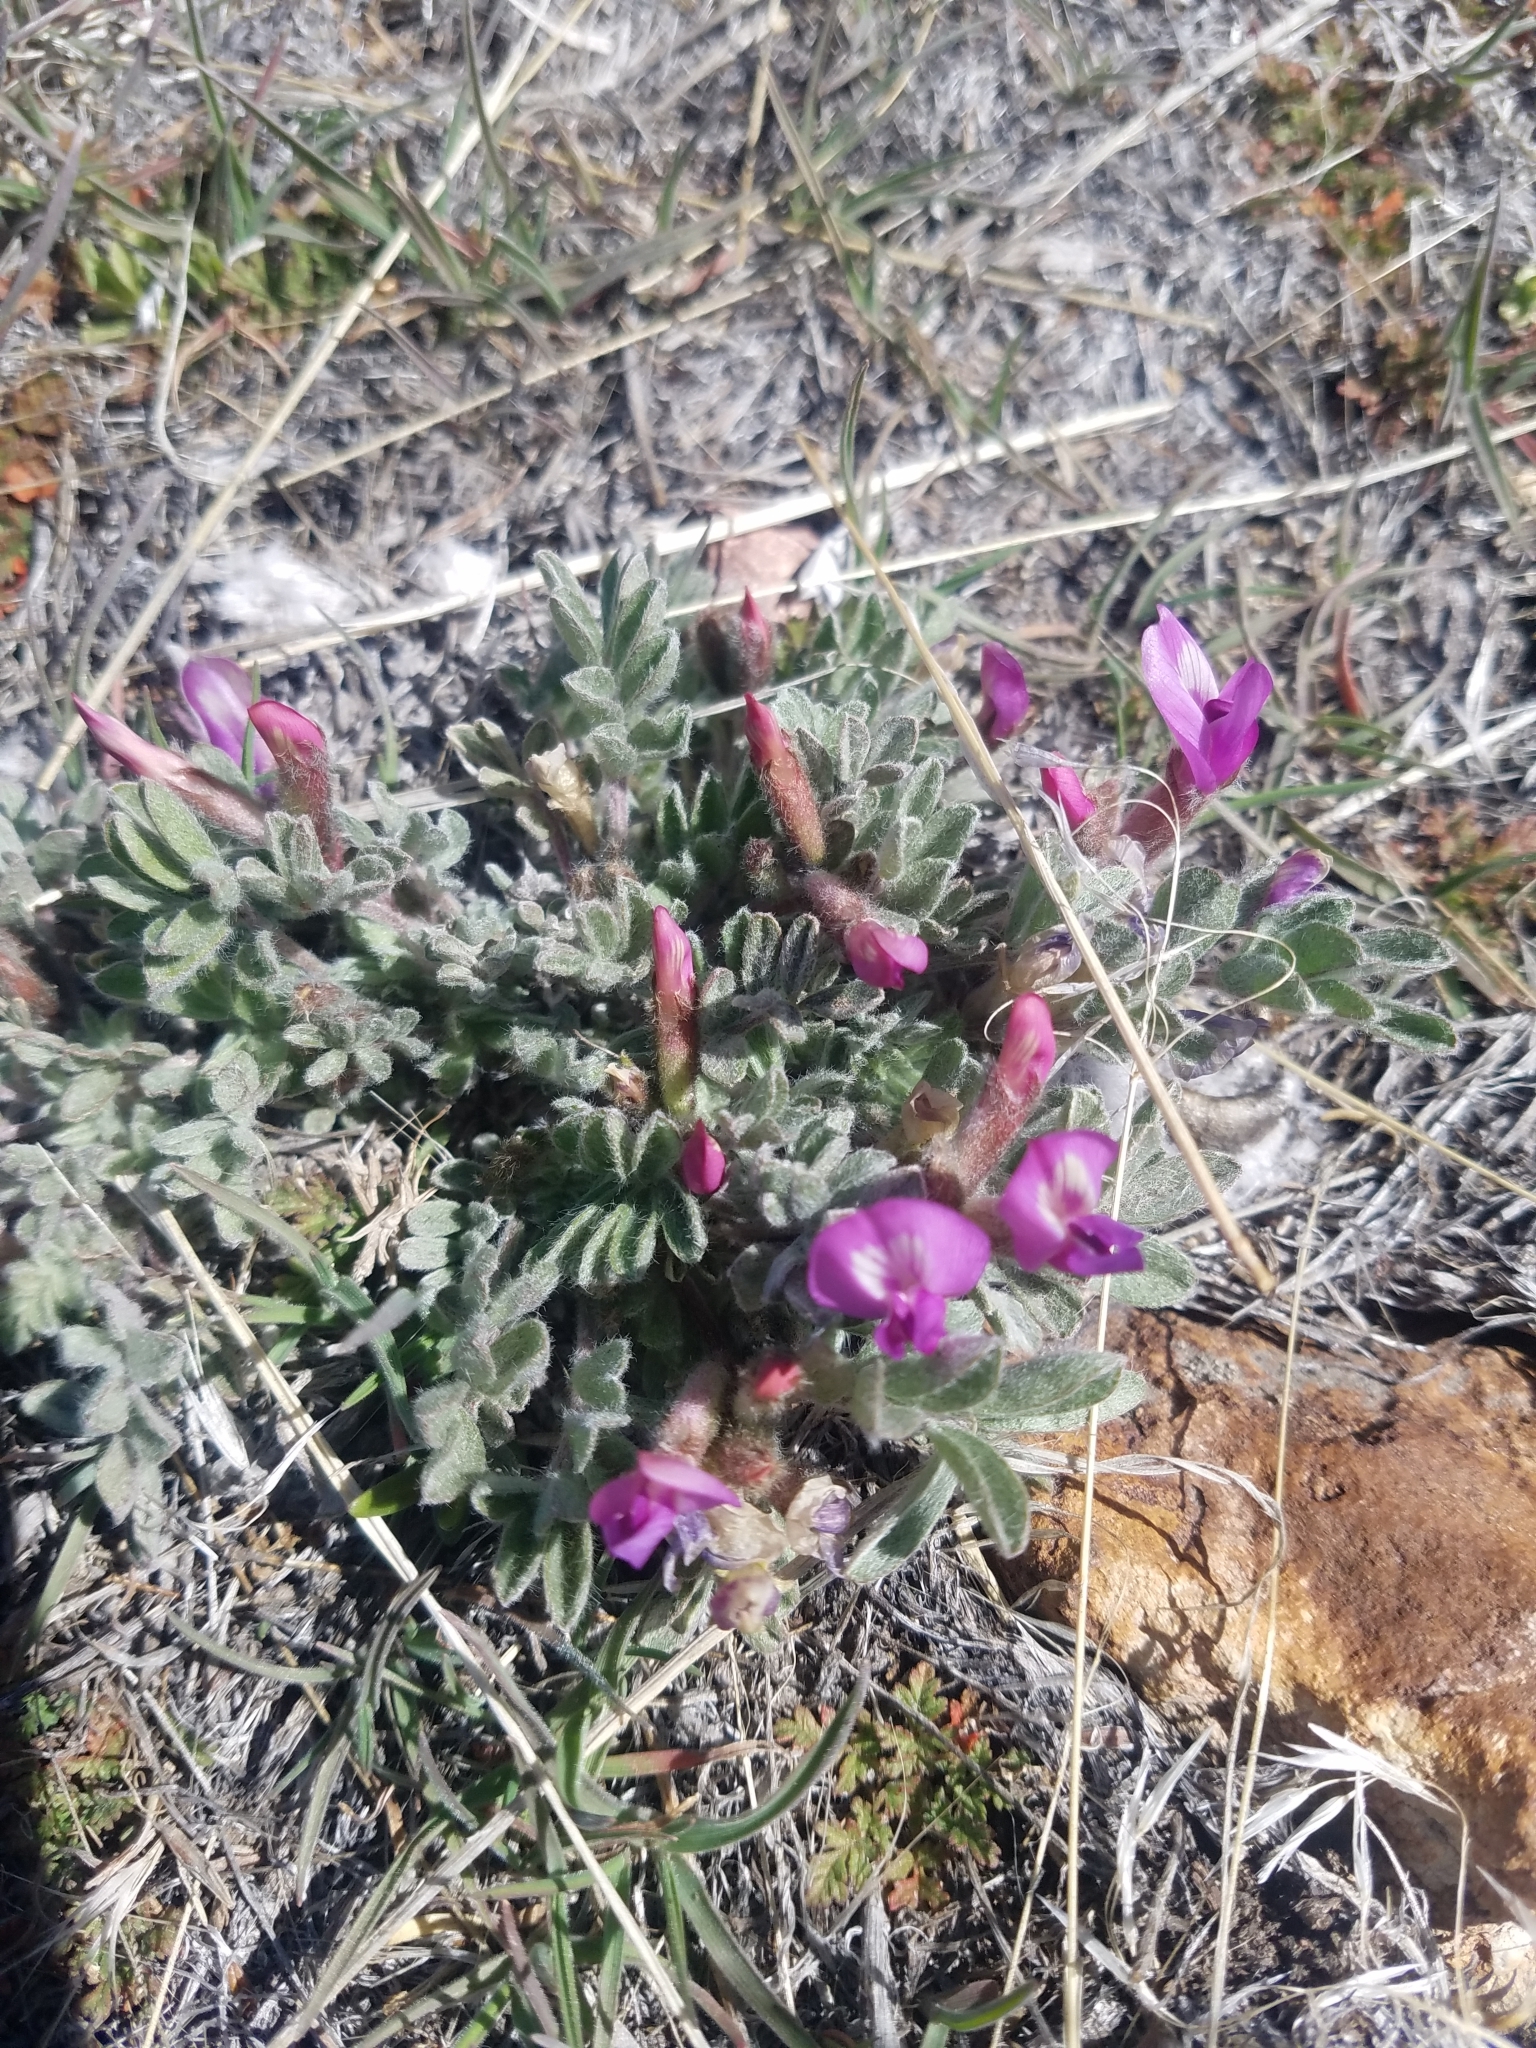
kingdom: Plantae
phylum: Tracheophyta
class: Magnoliopsida
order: Fabales
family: Fabaceae
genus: Astragalus
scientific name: Astragalus purshii
